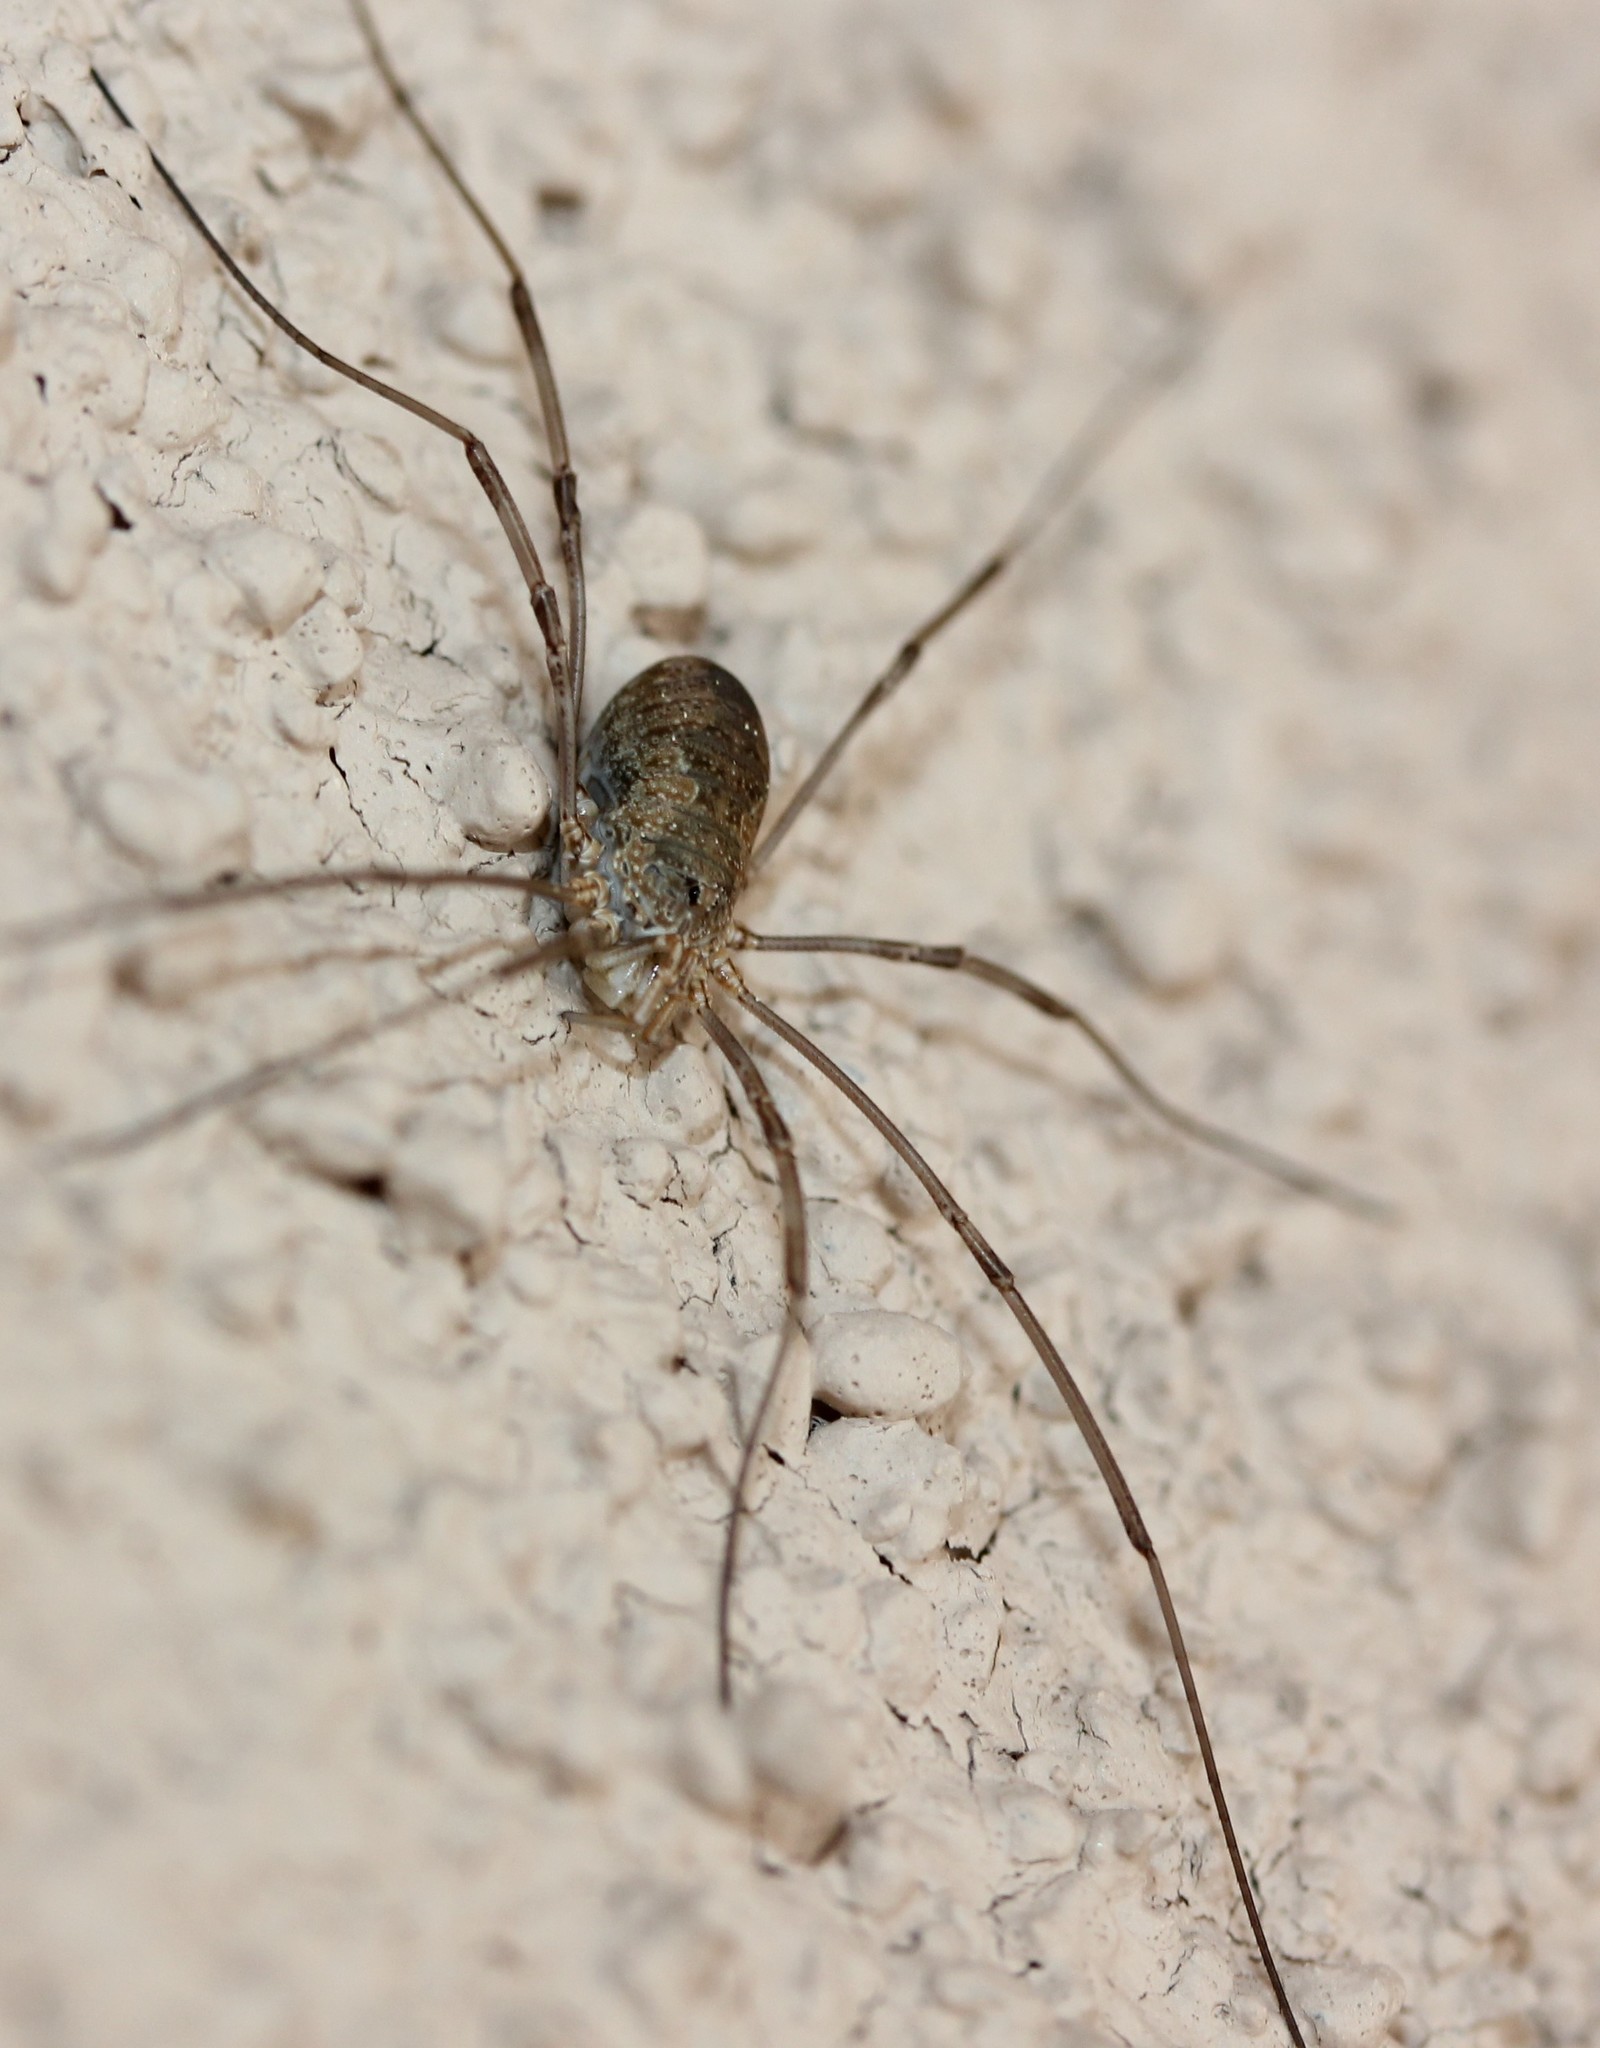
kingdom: Animalia
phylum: Arthropoda
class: Arachnida
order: Opiliones
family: Phalangiidae
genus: Phalangium
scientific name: Phalangium opilio
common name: Daddy longleg
